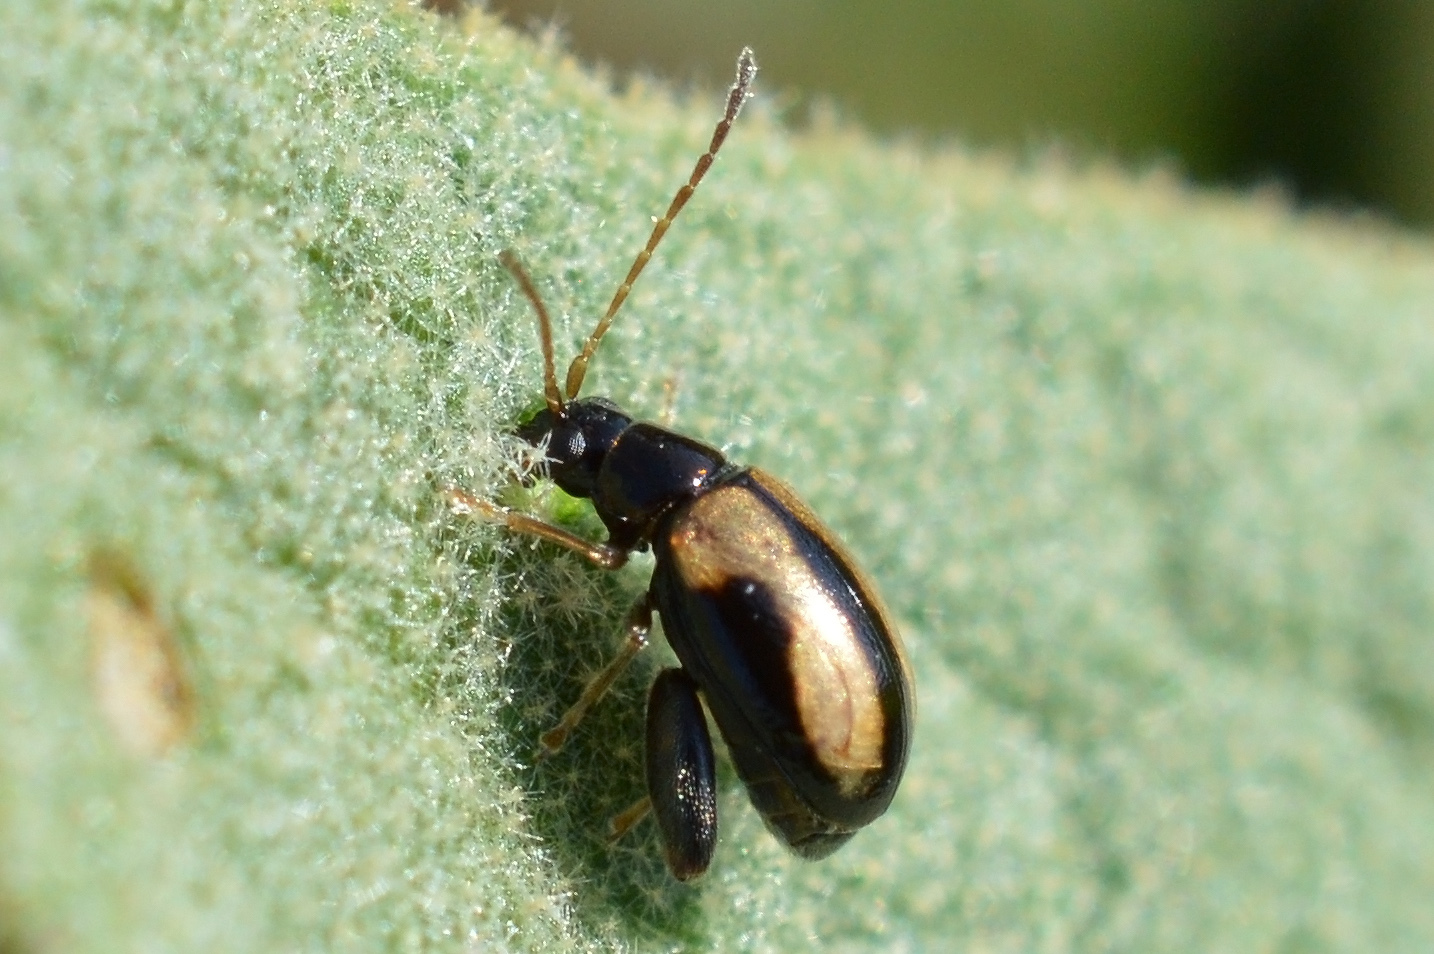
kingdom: Animalia
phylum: Arthropoda
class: Insecta
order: Coleoptera
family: Chrysomelidae
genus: Longitarsus
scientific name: Longitarsus nigrofasciatus
